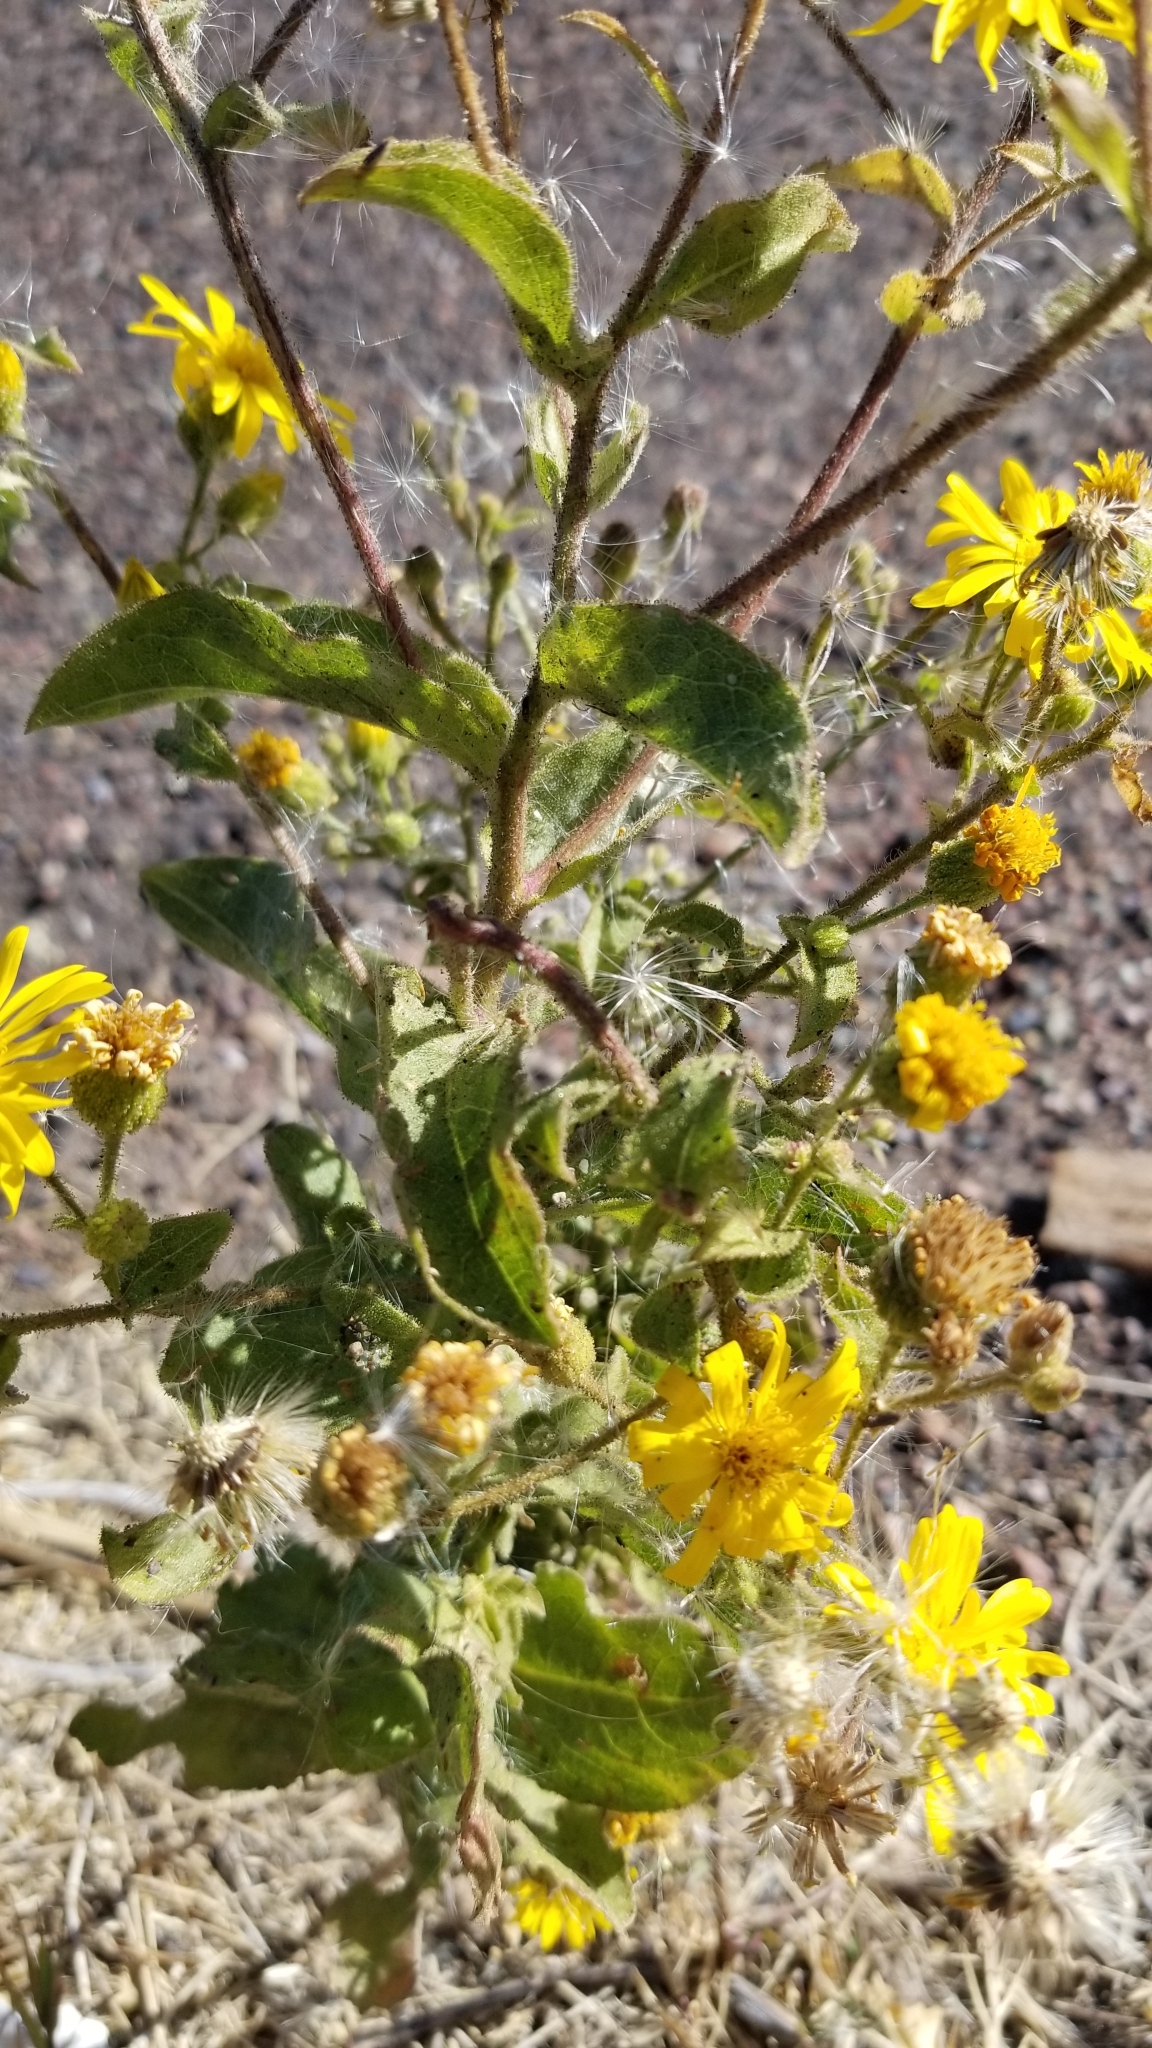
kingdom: Plantae
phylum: Tracheophyta
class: Magnoliopsida
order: Asterales
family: Asteraceae
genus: Heterotheca
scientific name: Heterotheca subaxillaris
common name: Camphorweed
